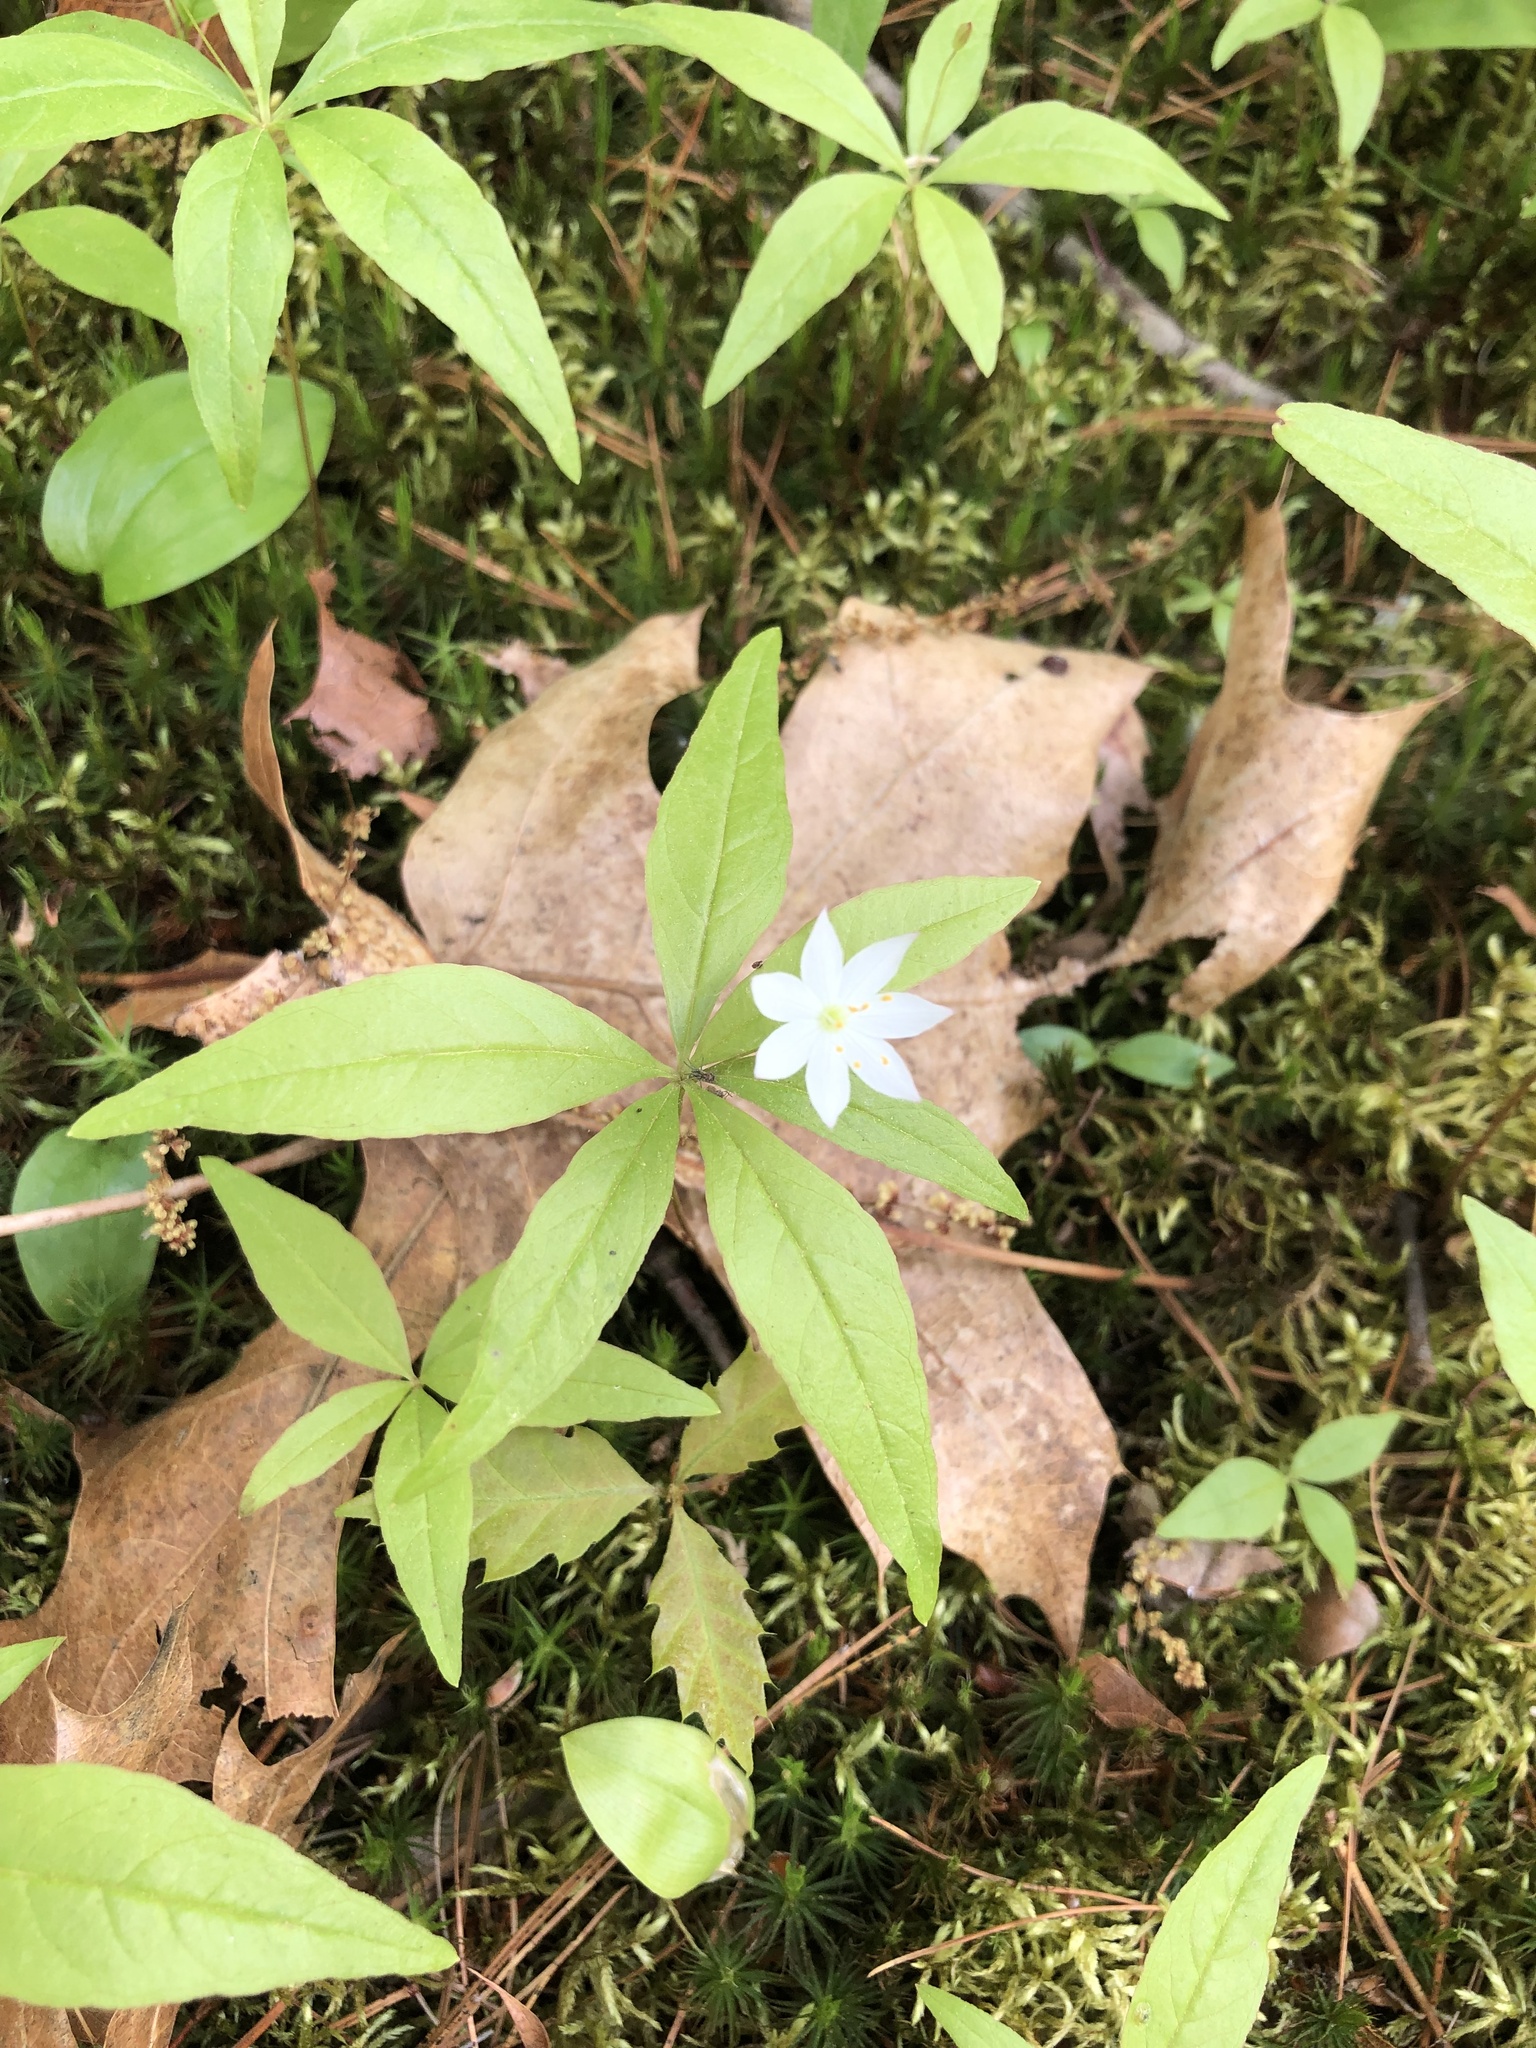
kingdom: Plantae
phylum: Tracheophyta
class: Magnoliopsida
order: Ericales
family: Primulaceae
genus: Lysimachia
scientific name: Lysimachia borealis
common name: American starflower
